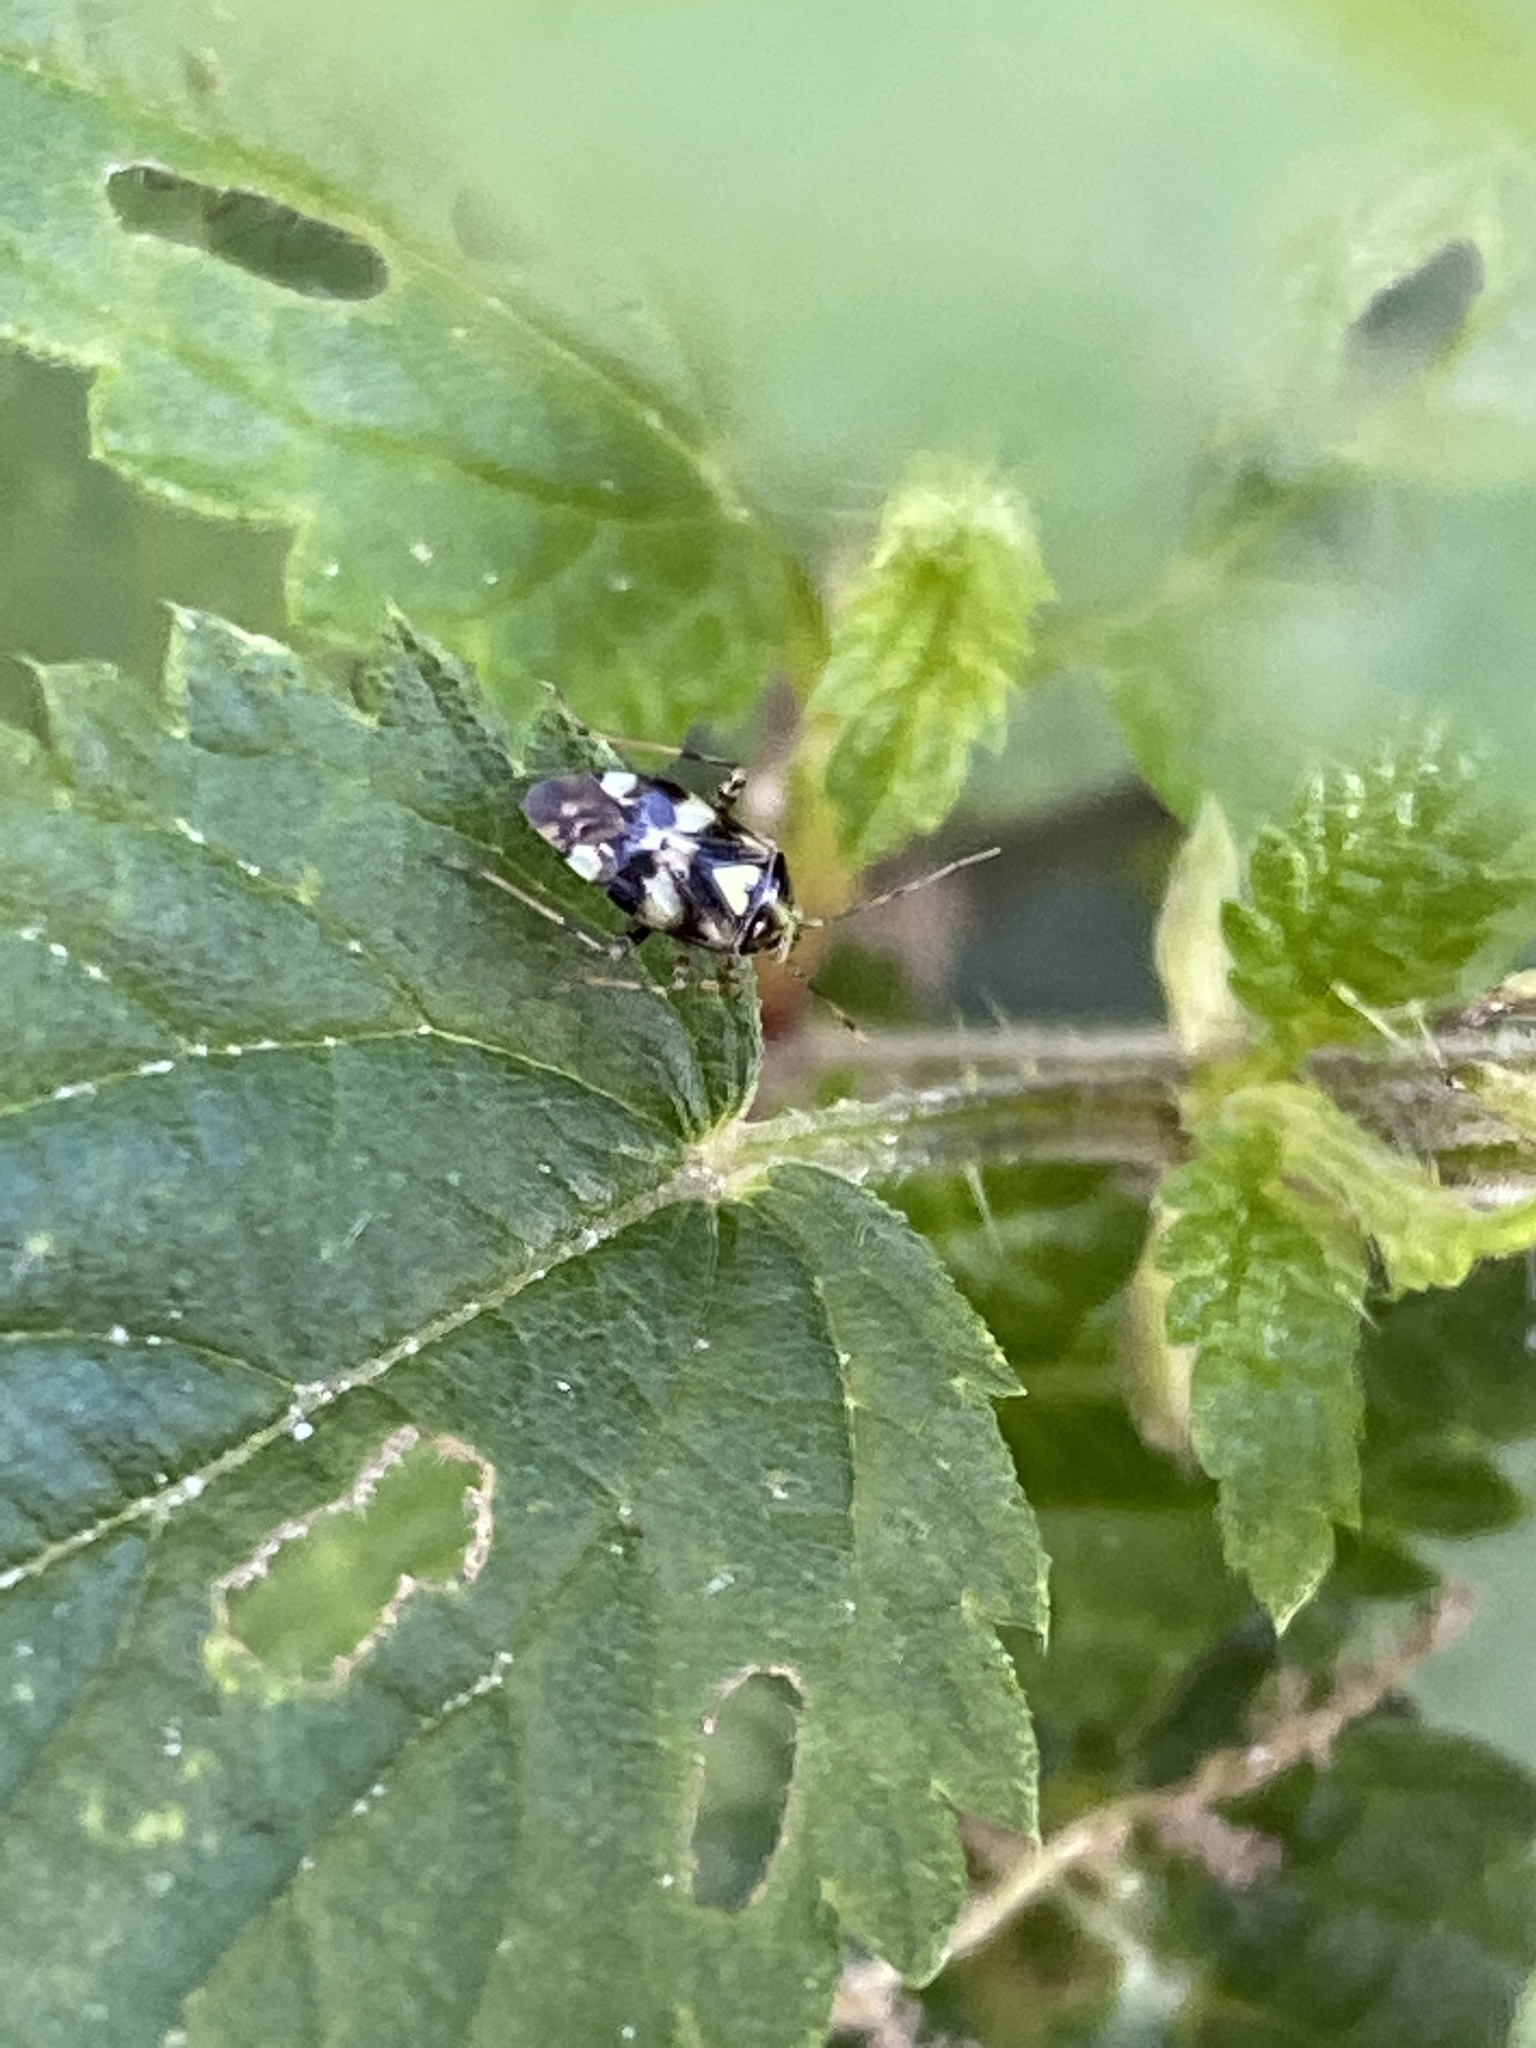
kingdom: Animalia
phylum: Arthropoda
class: Insecta
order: Hemiptera
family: Miridae
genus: Liocoris
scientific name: Liocoris tripustulatus
